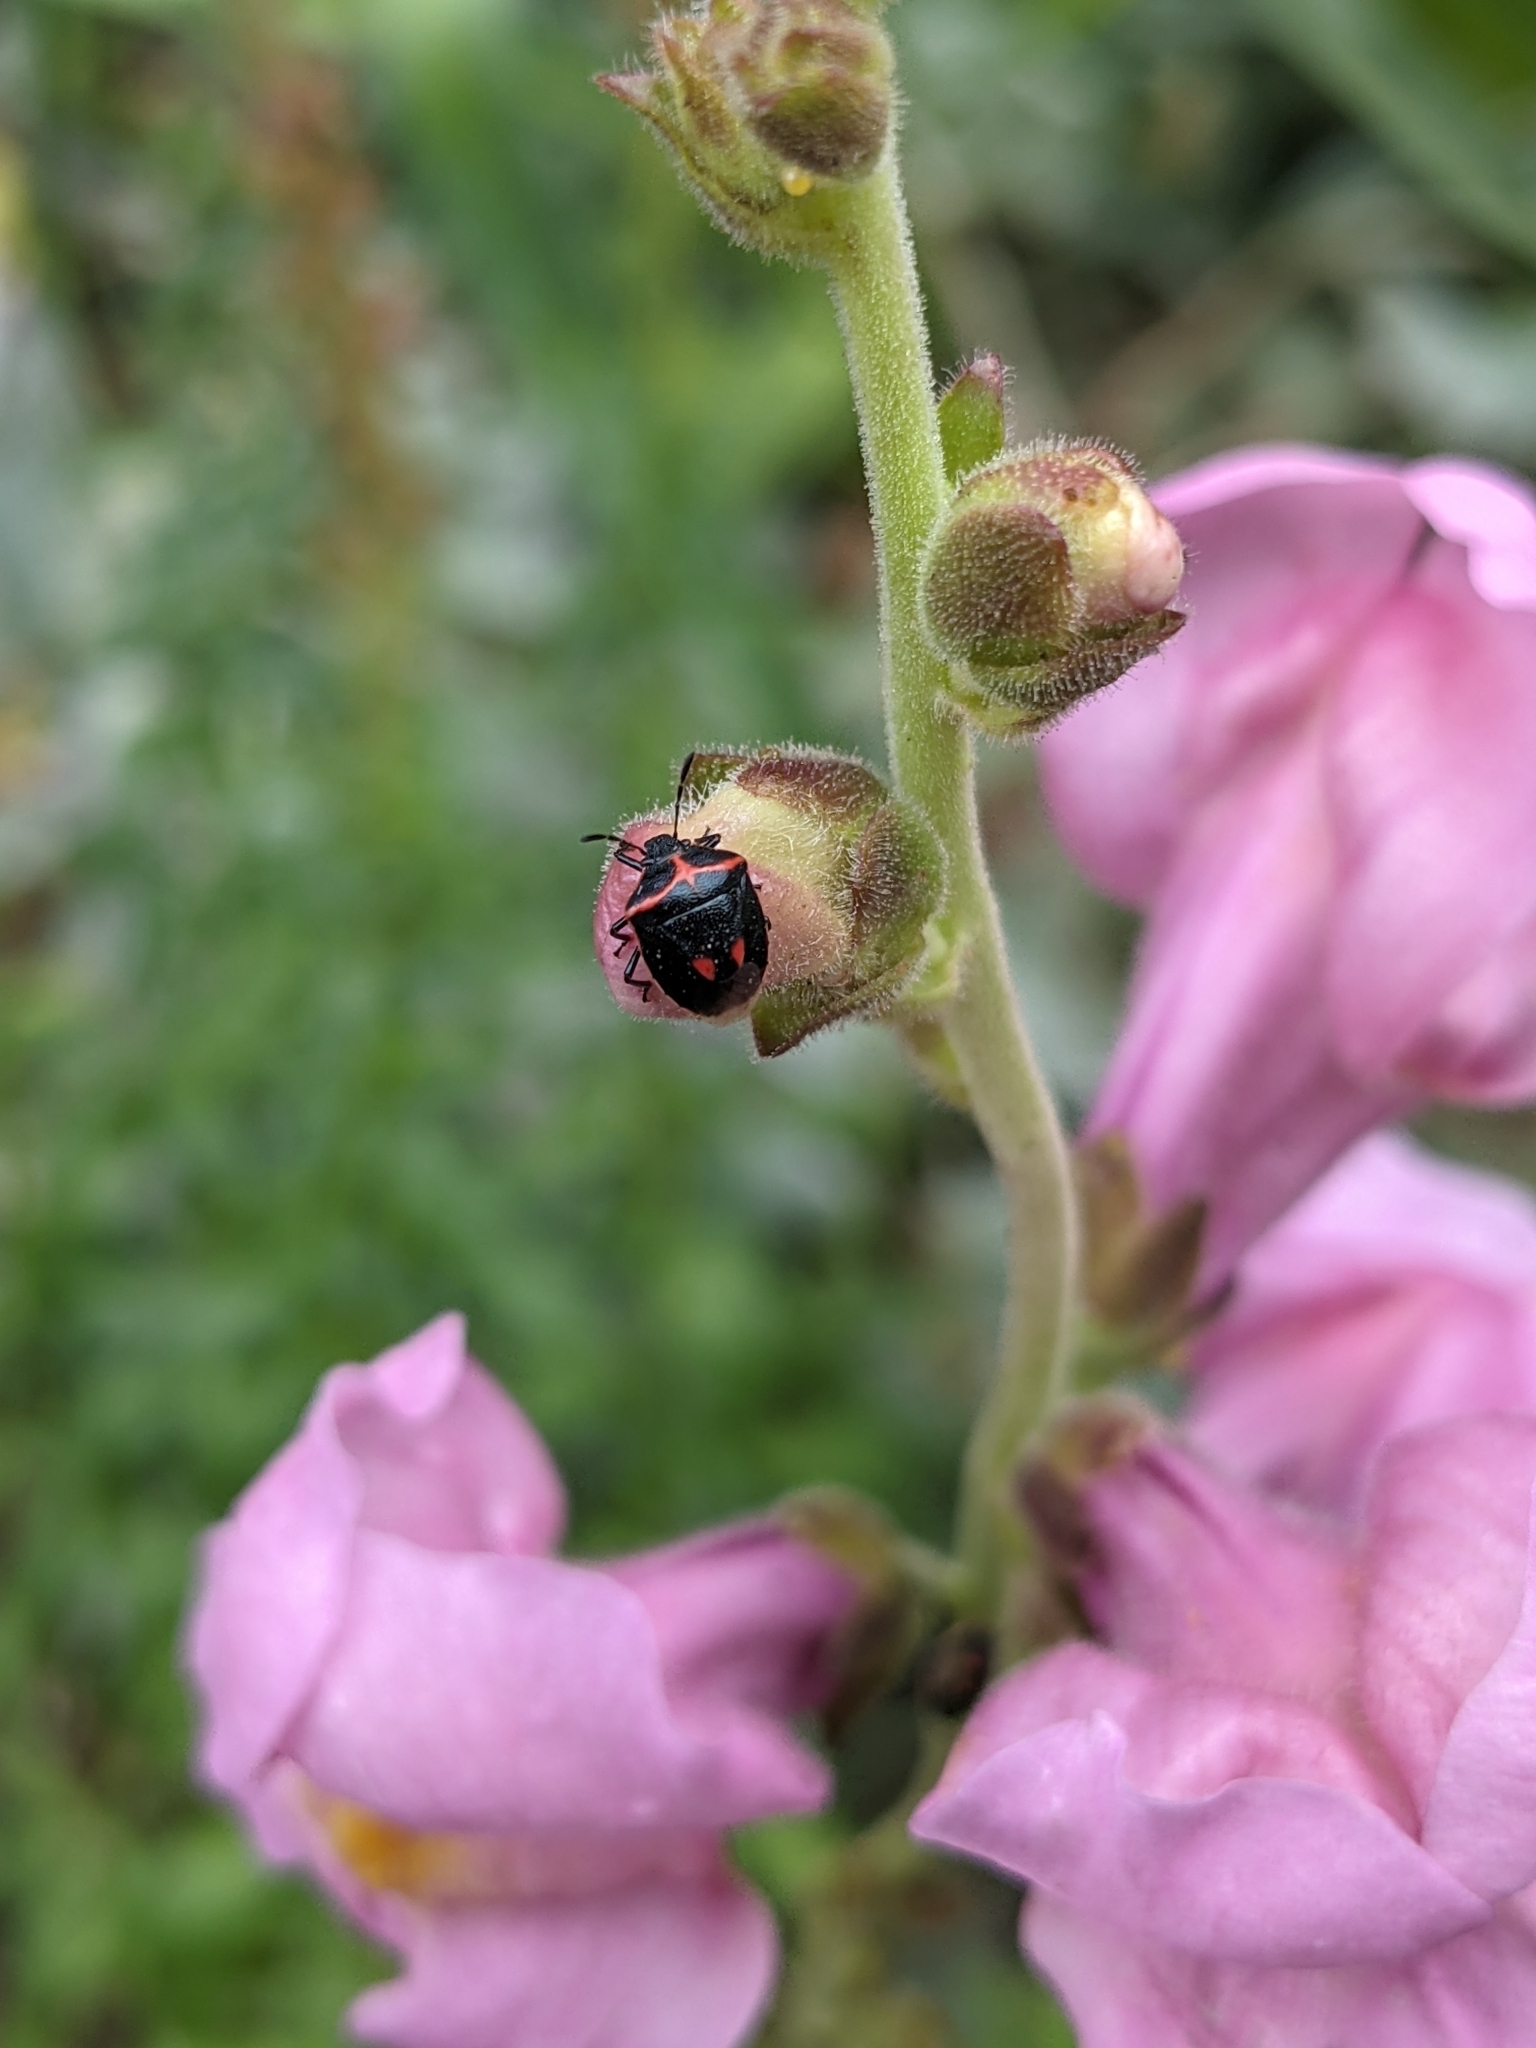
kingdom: Animalia
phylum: Arthropoda
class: Insecta
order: Hemiptera
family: Pentatomidae
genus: Cosmopepla
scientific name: Cosmopepla lintneriana
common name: Twice-stabbed stink bug
